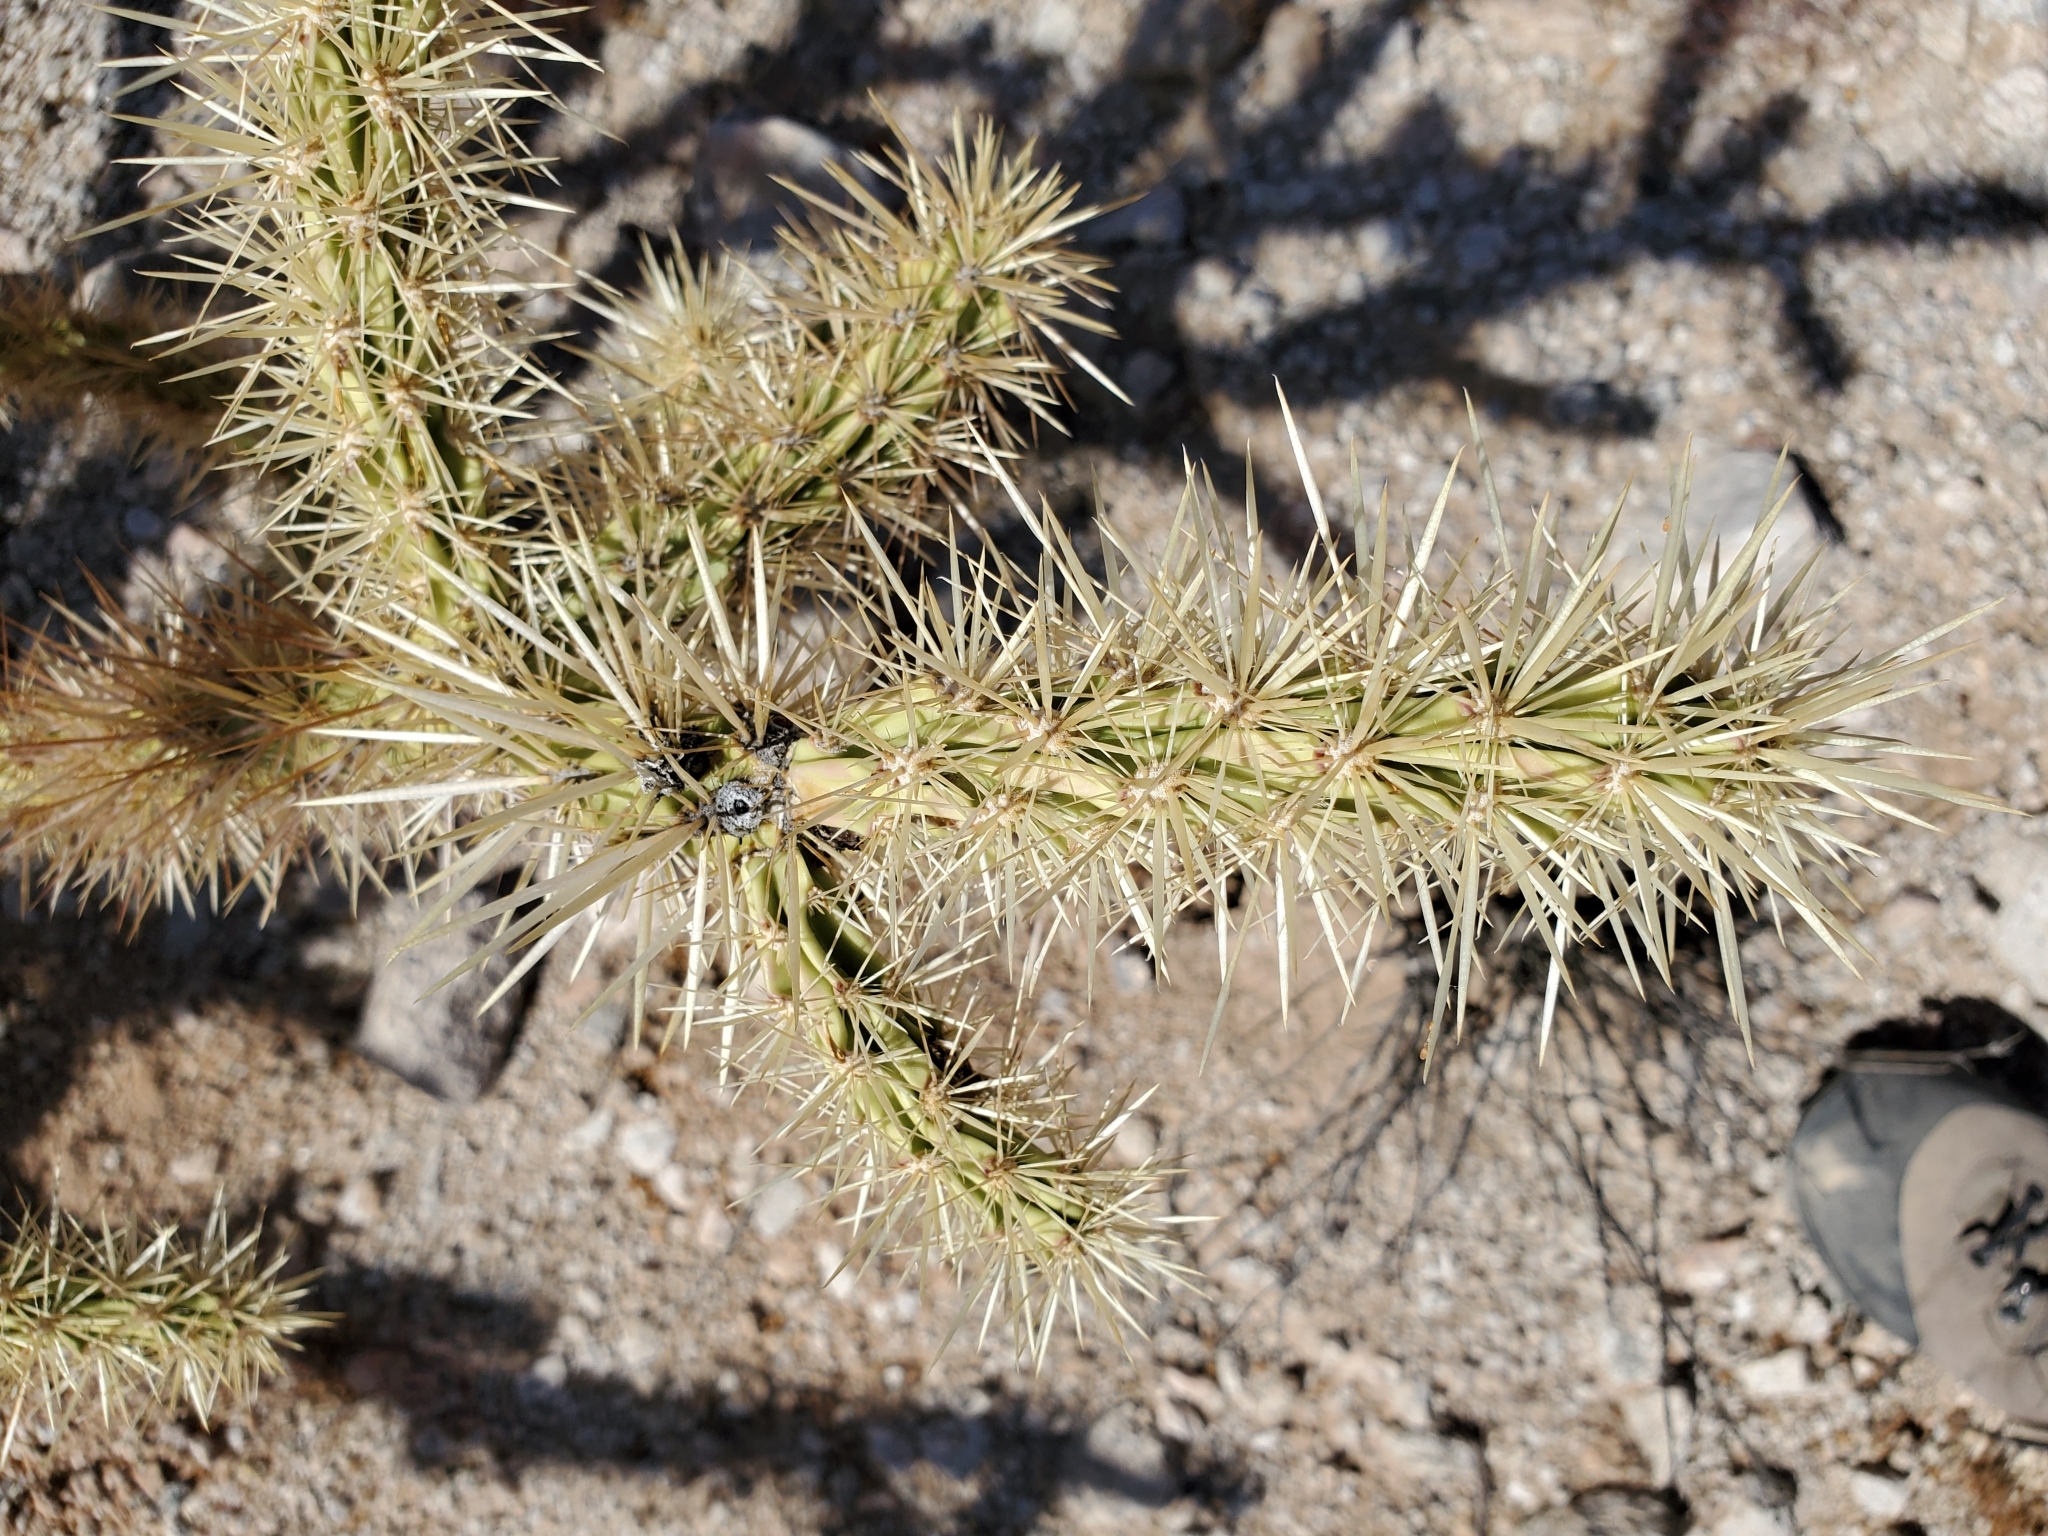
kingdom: Plantae
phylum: Tracheophyta
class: Magnoliopsida
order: Caryophyllales
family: Cactaceae
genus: Cylindropuntia
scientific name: Cylindropuntia acanthocarpa
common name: Buckhorn cholla
